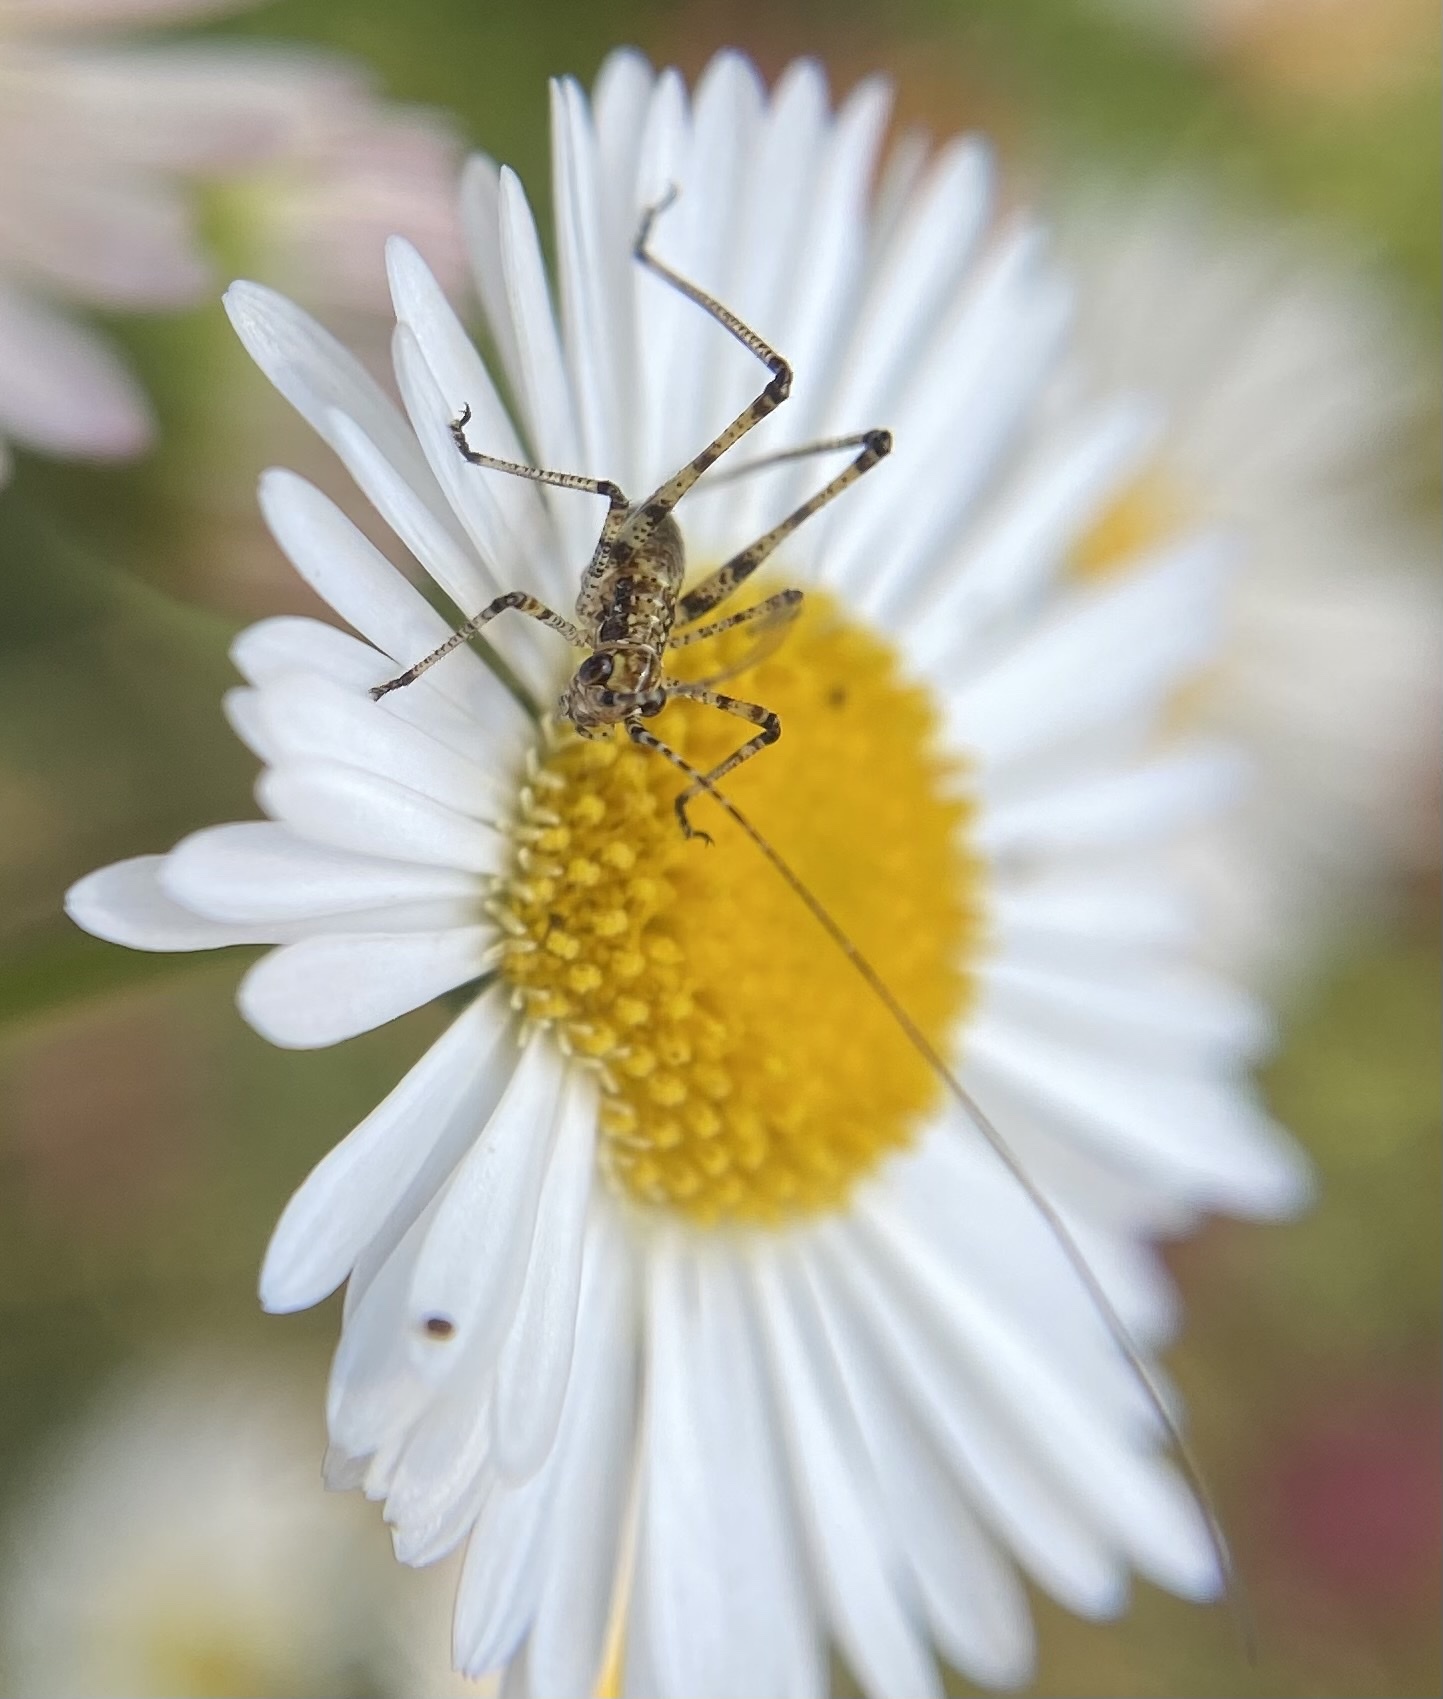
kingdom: Animalia
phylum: Arthropoda
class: Insecta
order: Orthoptera
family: Tettigoniidae
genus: Phaneroptera
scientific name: Phaneroptera nana
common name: Southern sickle bush-cricket
